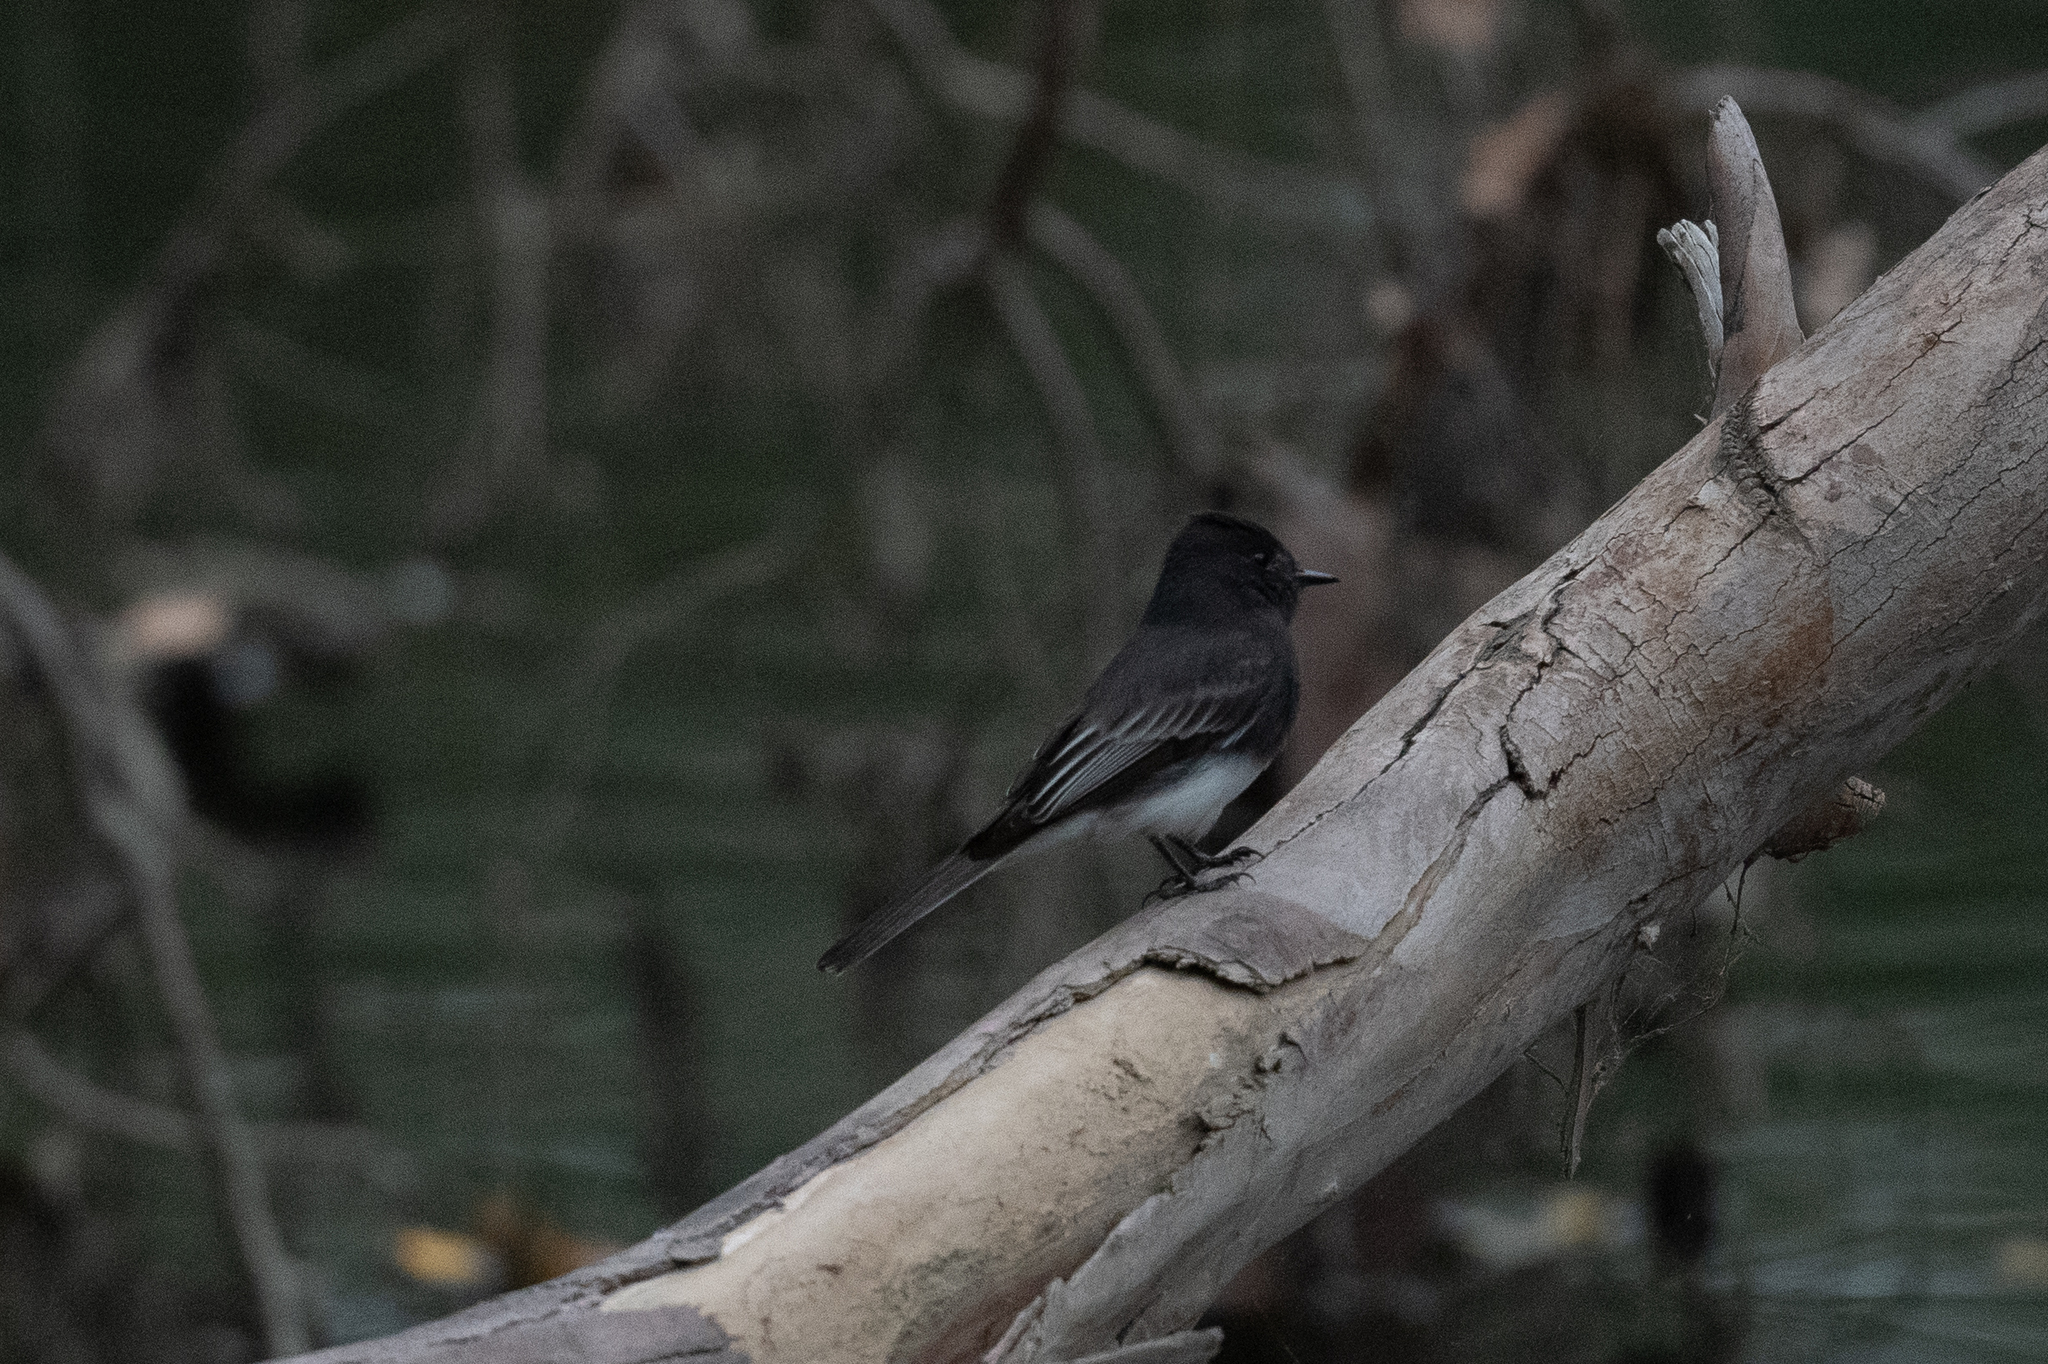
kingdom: Animalia
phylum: Chordata
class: Aves
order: Passeriformes
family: Tyrannidae
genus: Sayornis
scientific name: Sayornis nigricans
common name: Black phoebe
